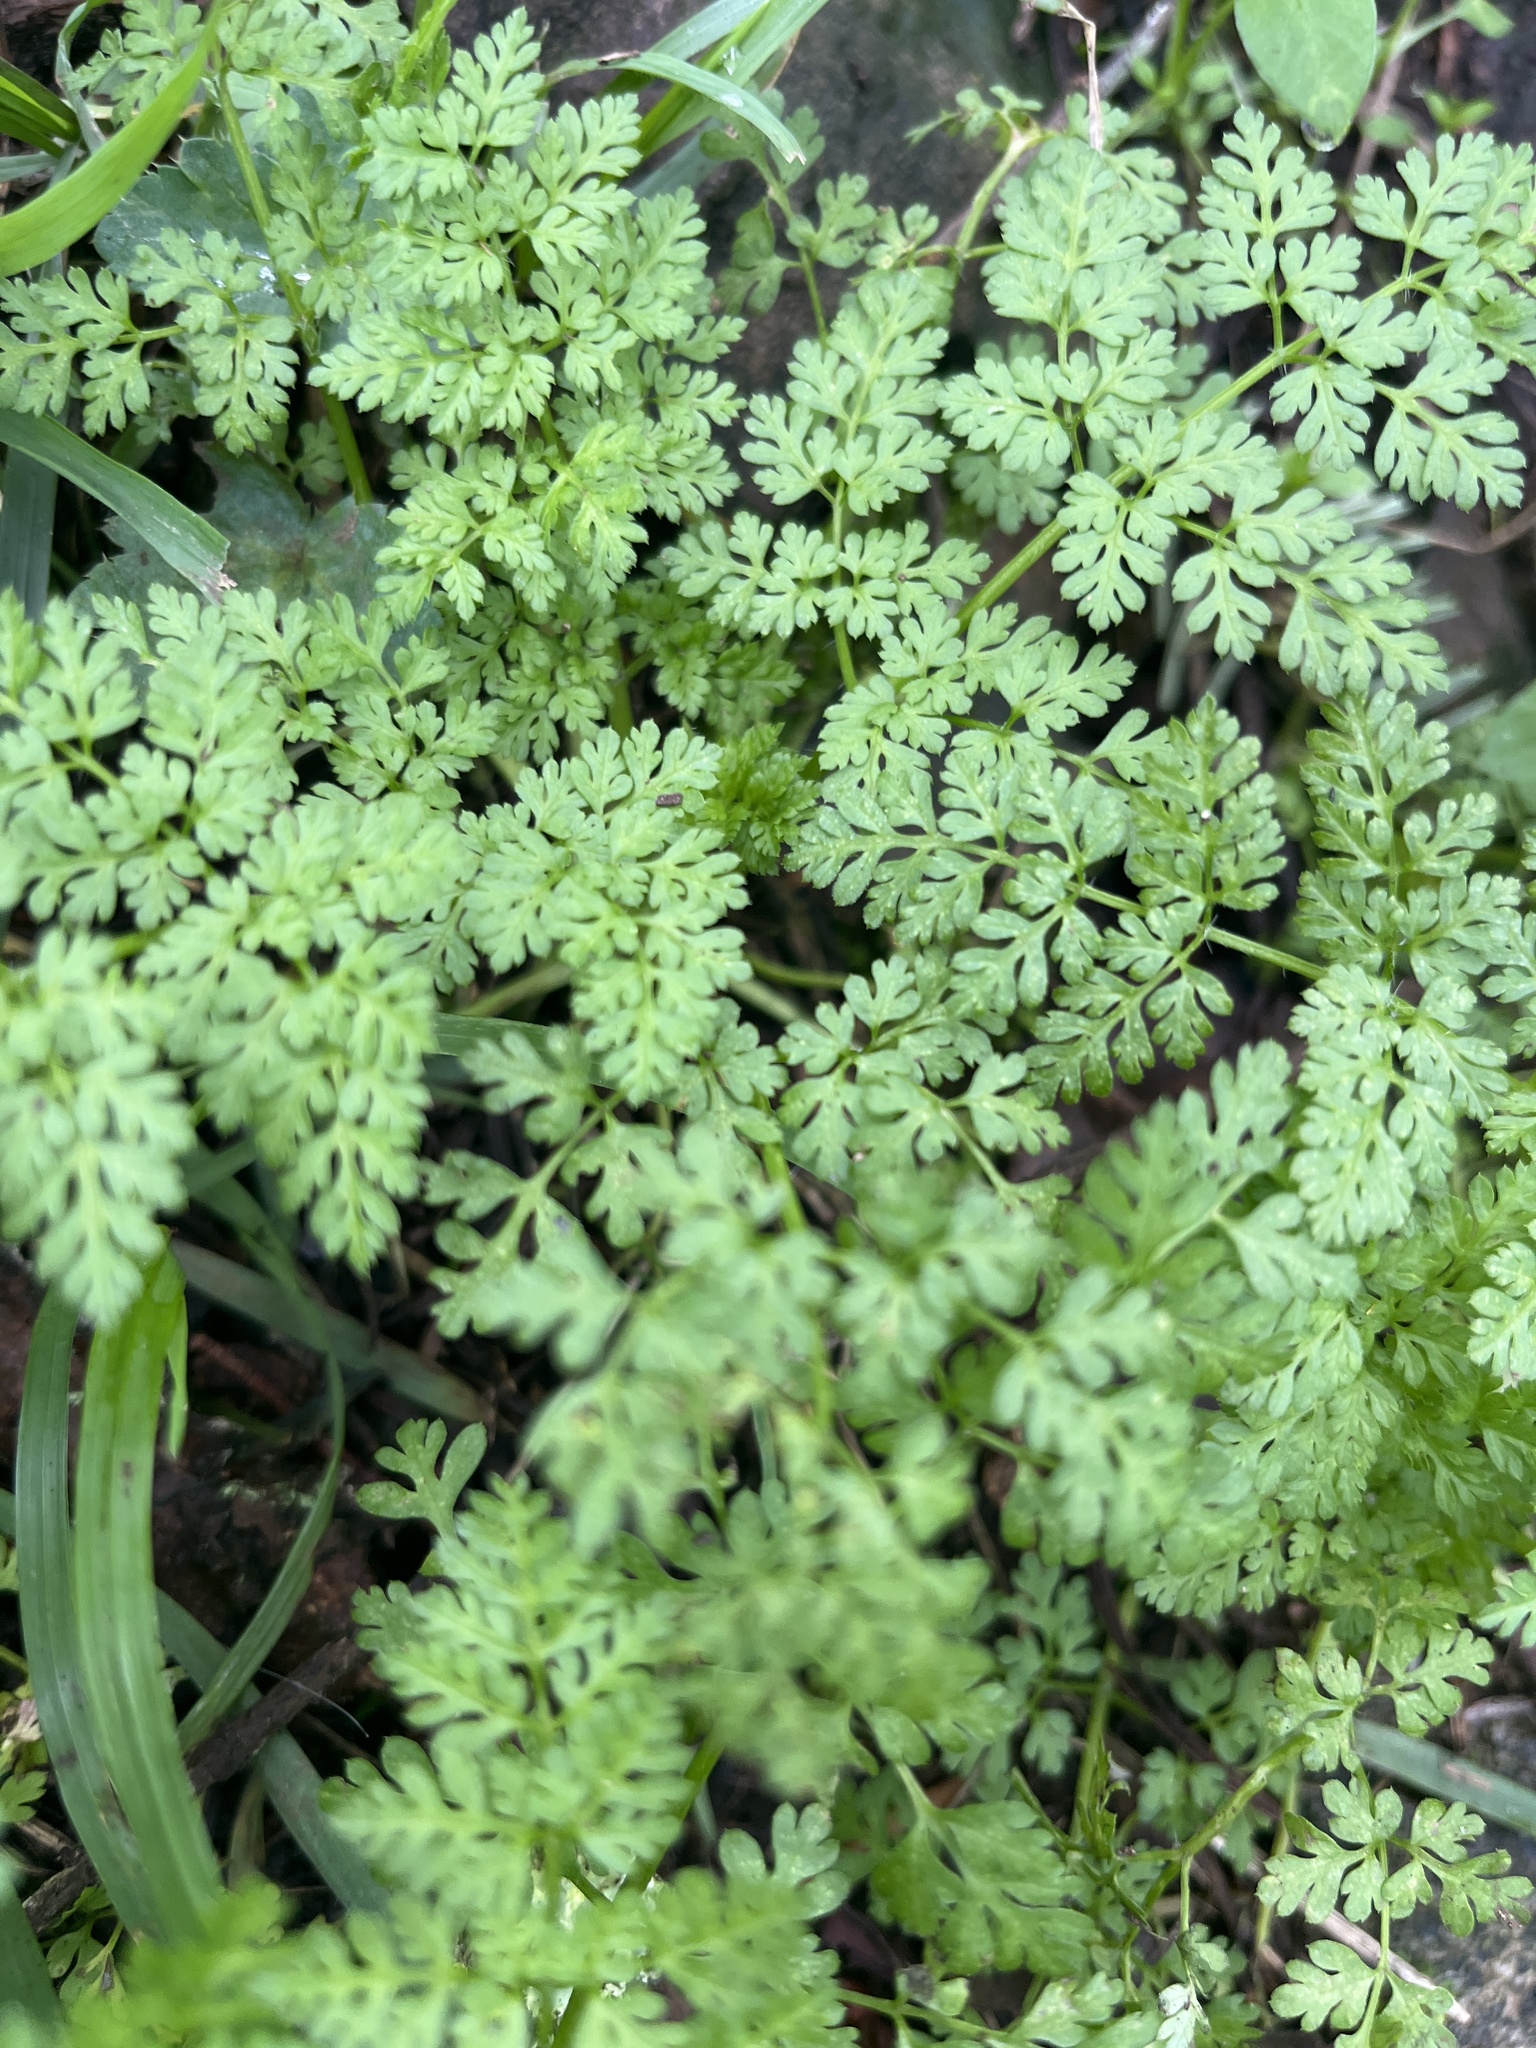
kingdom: Plantae
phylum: Tracheophyta
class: Magnoliopsida
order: Apiales
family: Apiaceae
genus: Anthriscus
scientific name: Anthriscus caucalis
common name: Bur chervil
